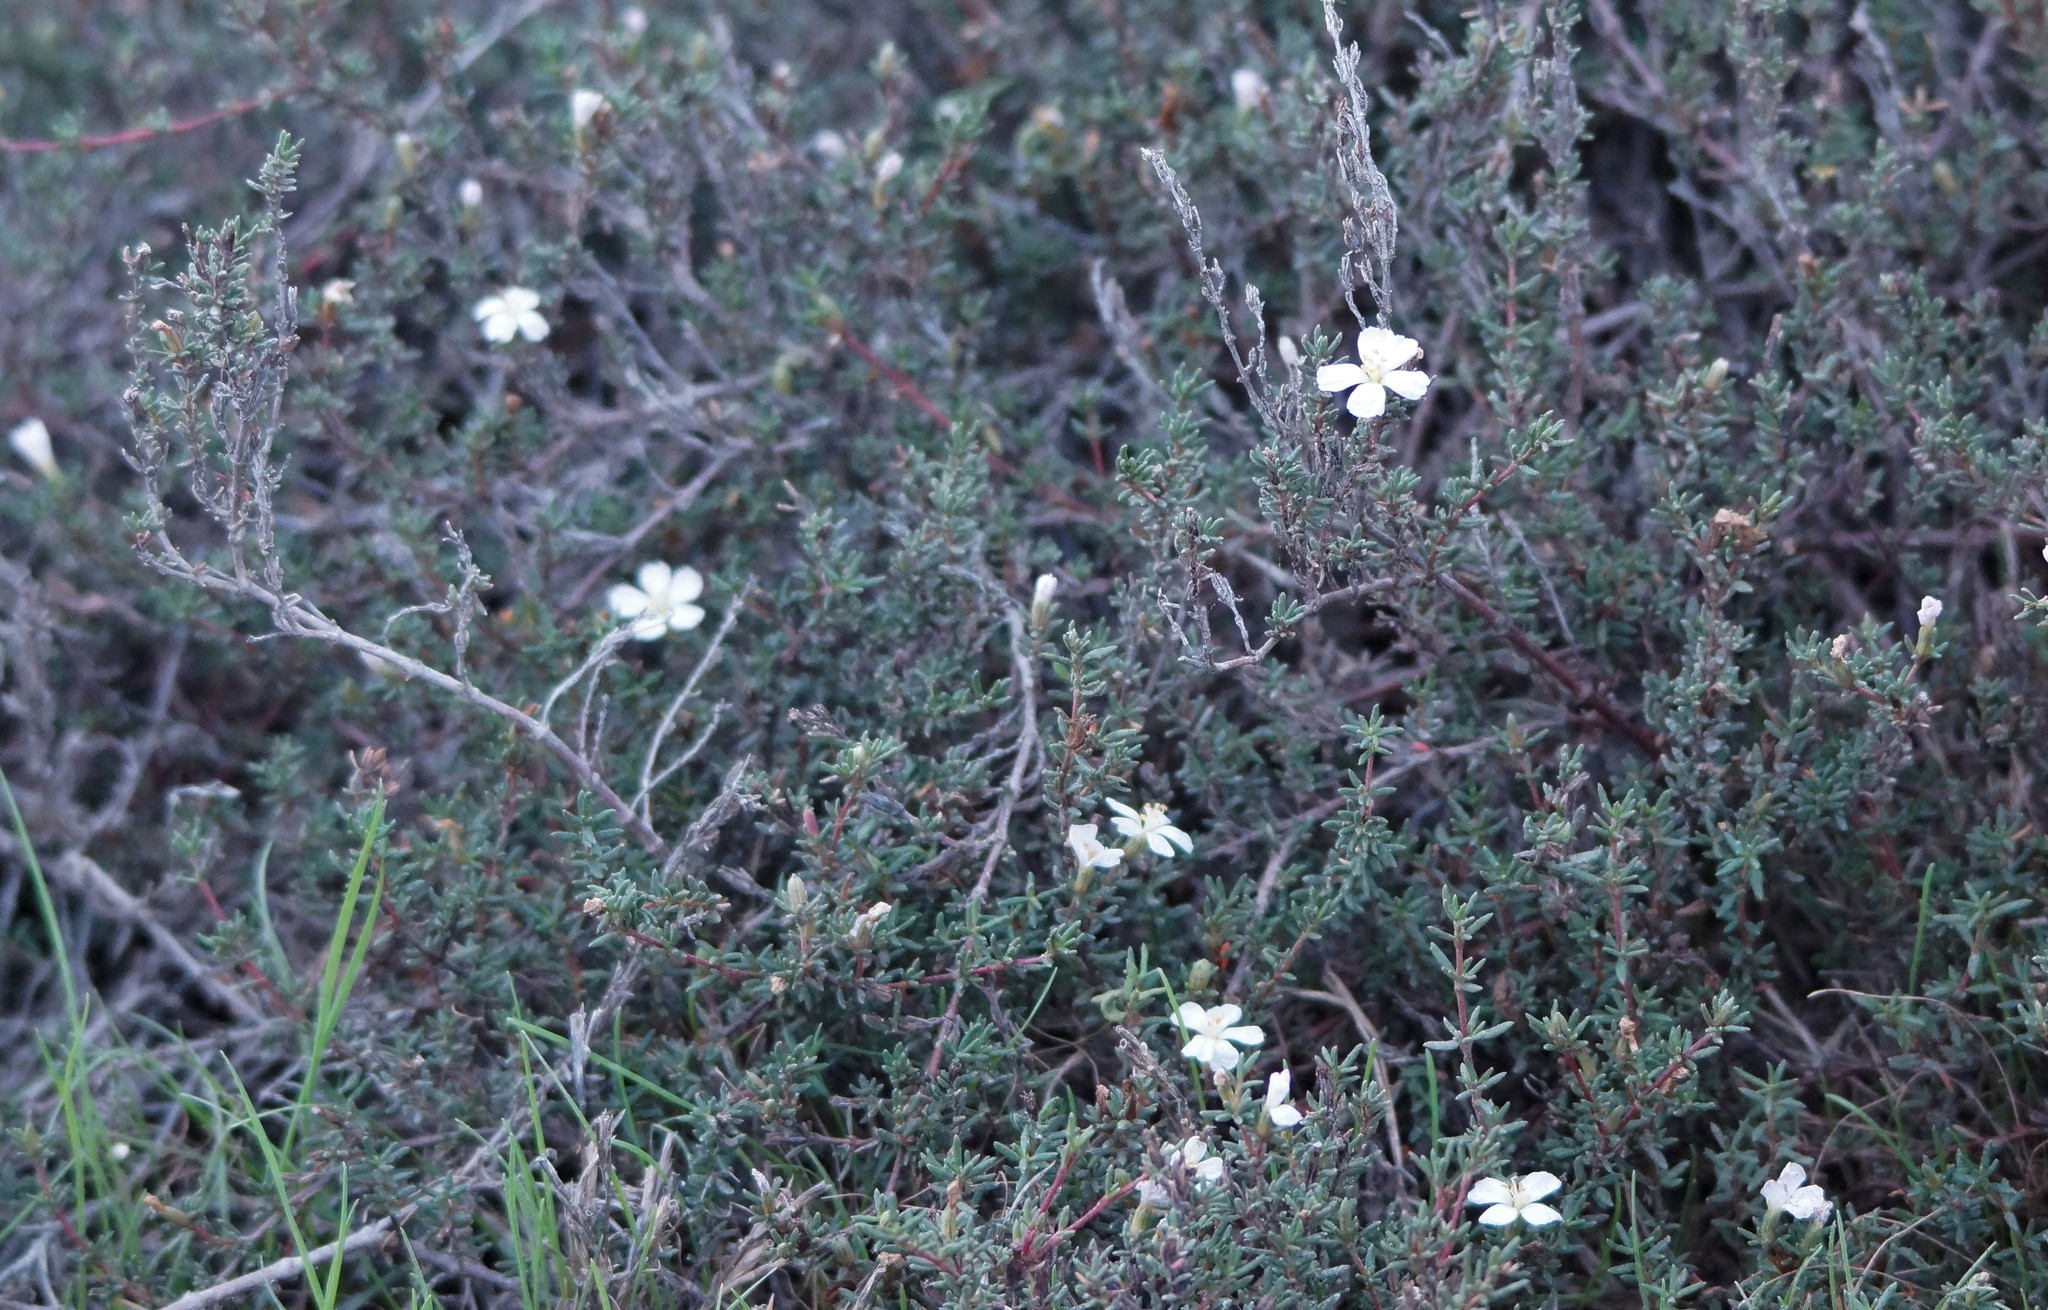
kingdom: Plantae
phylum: Tracheophyta
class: Magnoliopsida
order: Caryophyllales
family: Frankeniaceae
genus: Frankenia
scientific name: Frankenia pauciflora
